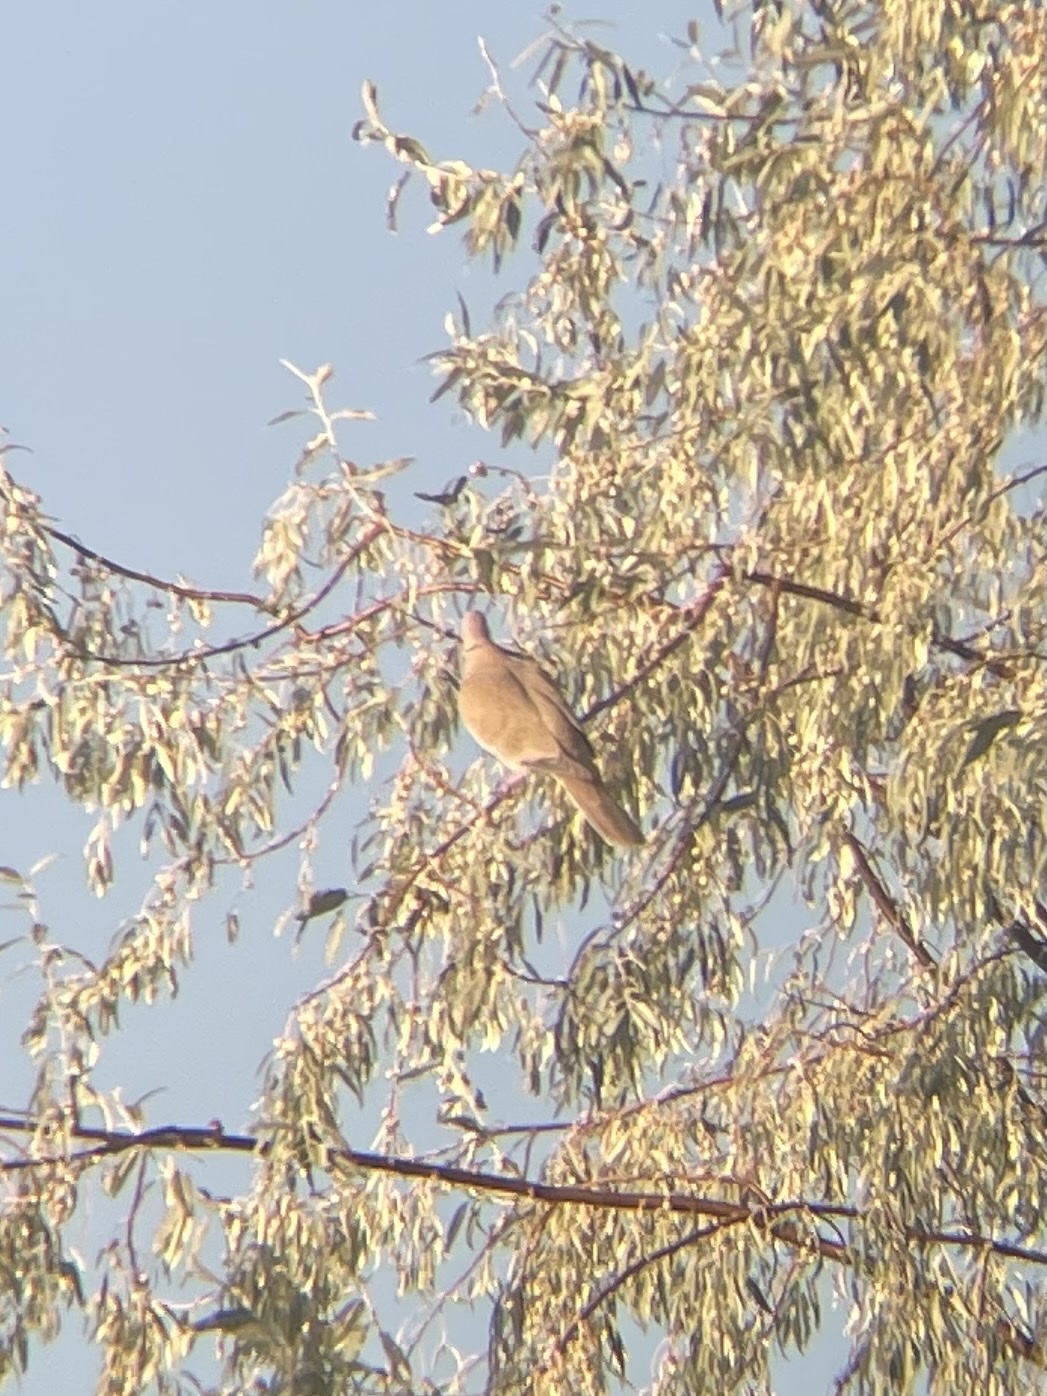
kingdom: Animalia
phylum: Chordata
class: Aves
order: Columbiformes
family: Columbidae
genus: Streptopelia
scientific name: Streptopelia decaocto
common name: Eurasian collared dove
